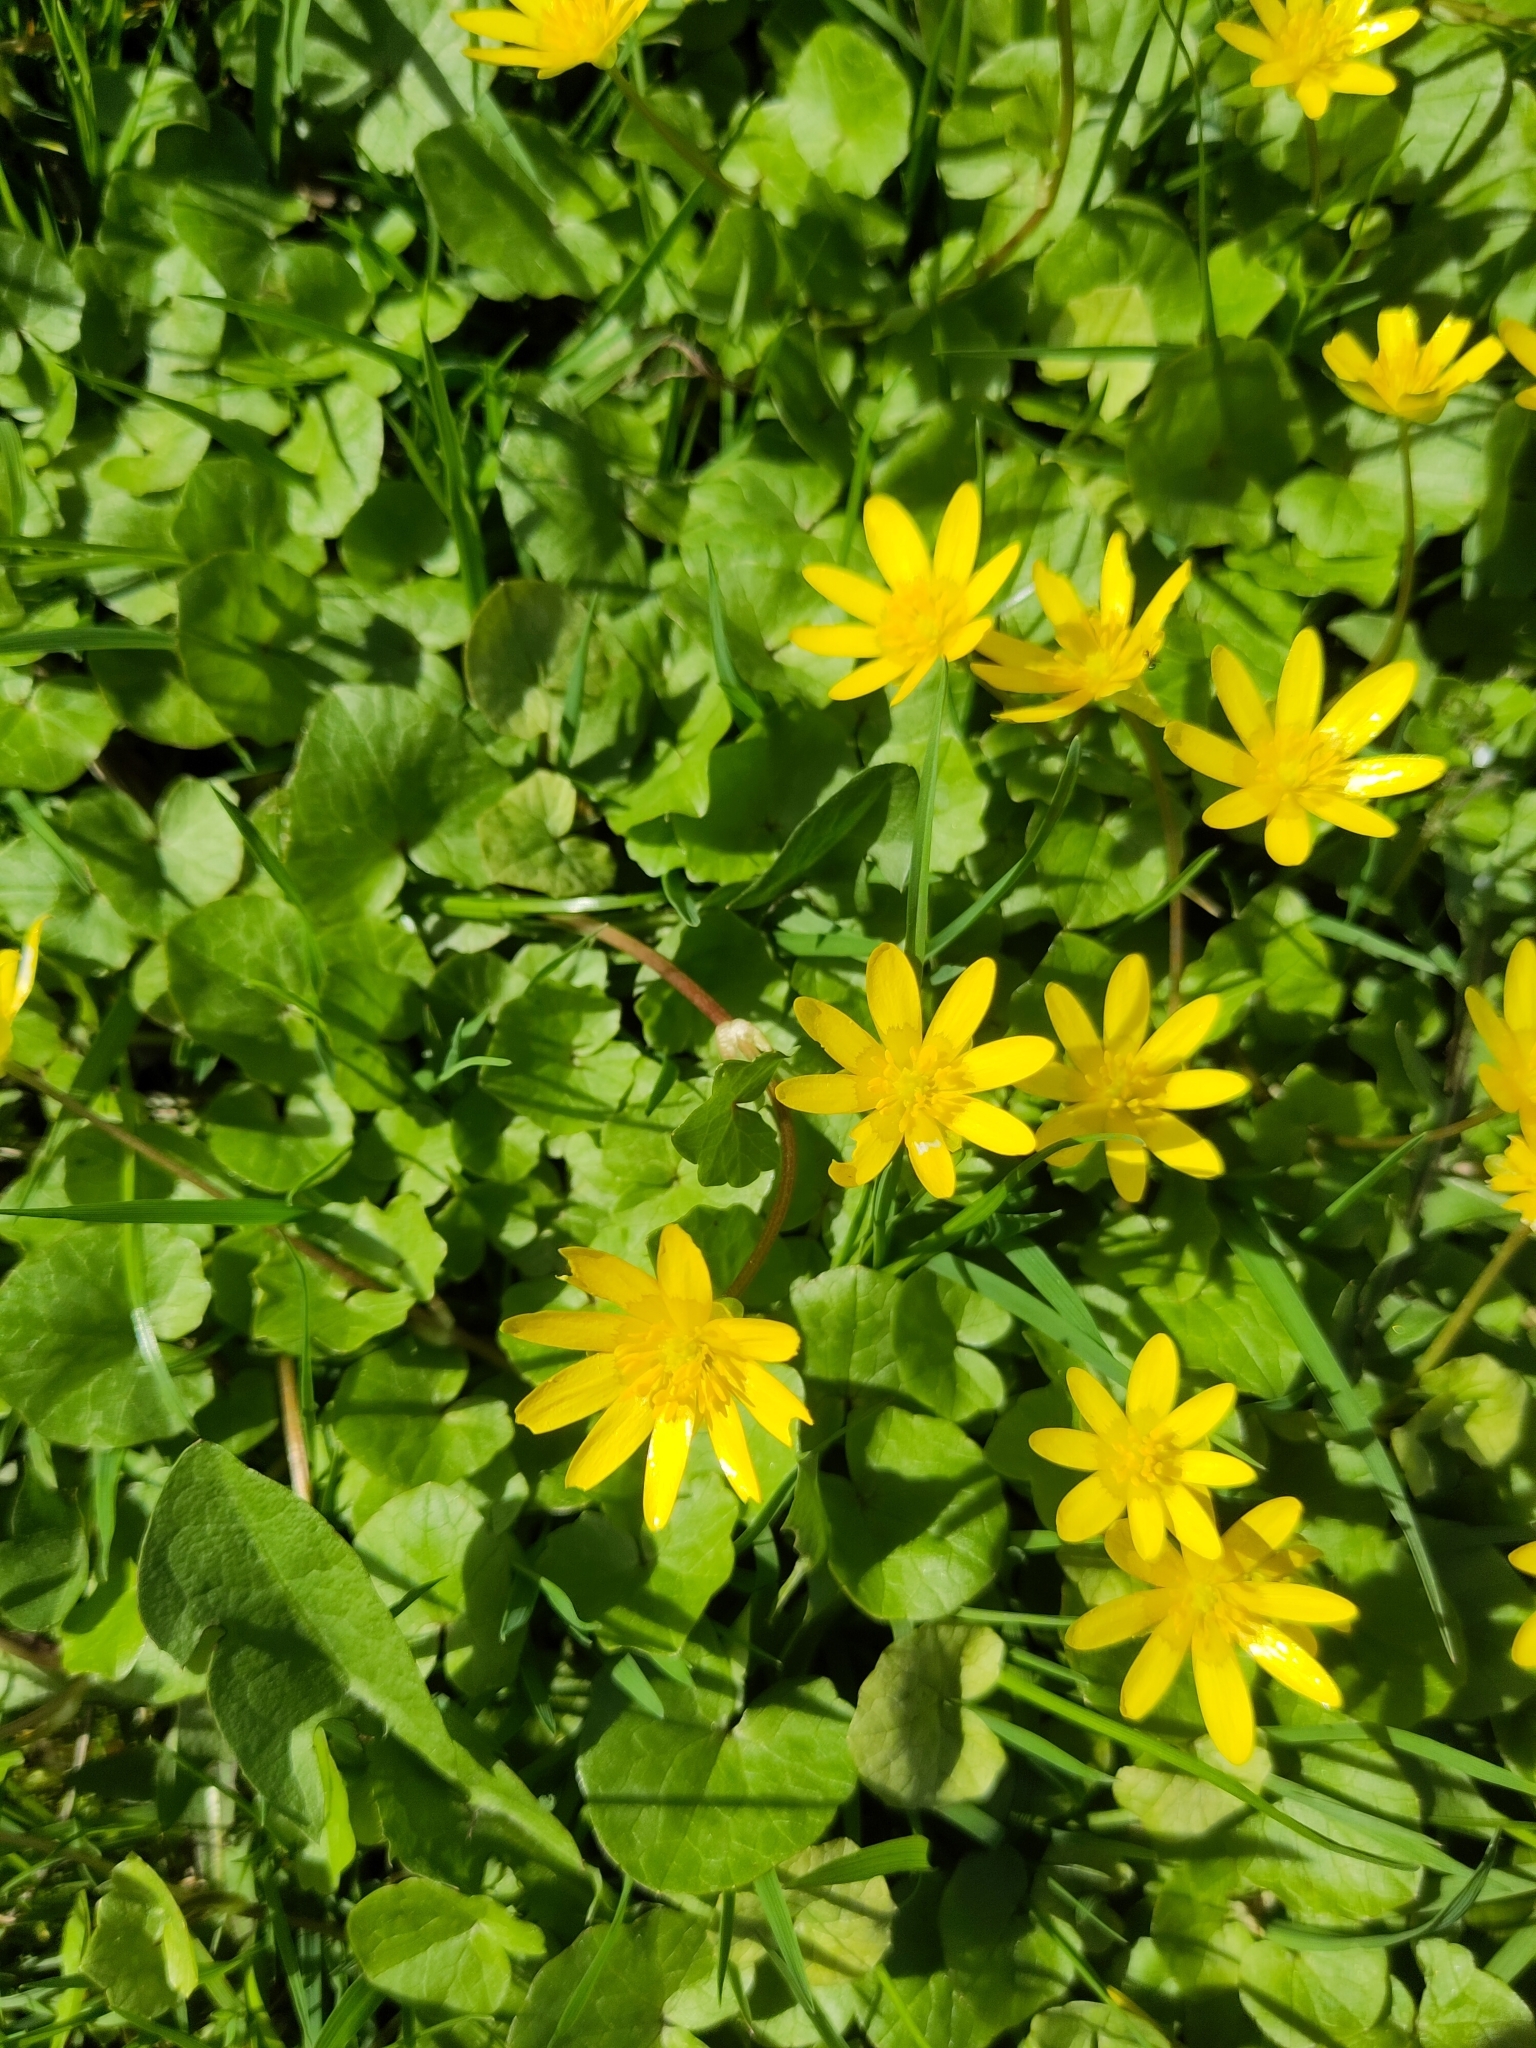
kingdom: Plantae
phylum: Tracheophyta
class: Magnoliopsida
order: Ranunculales
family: Ranunculaceae
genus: Ficaria
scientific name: Ficaria verna
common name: Lesser celandine
